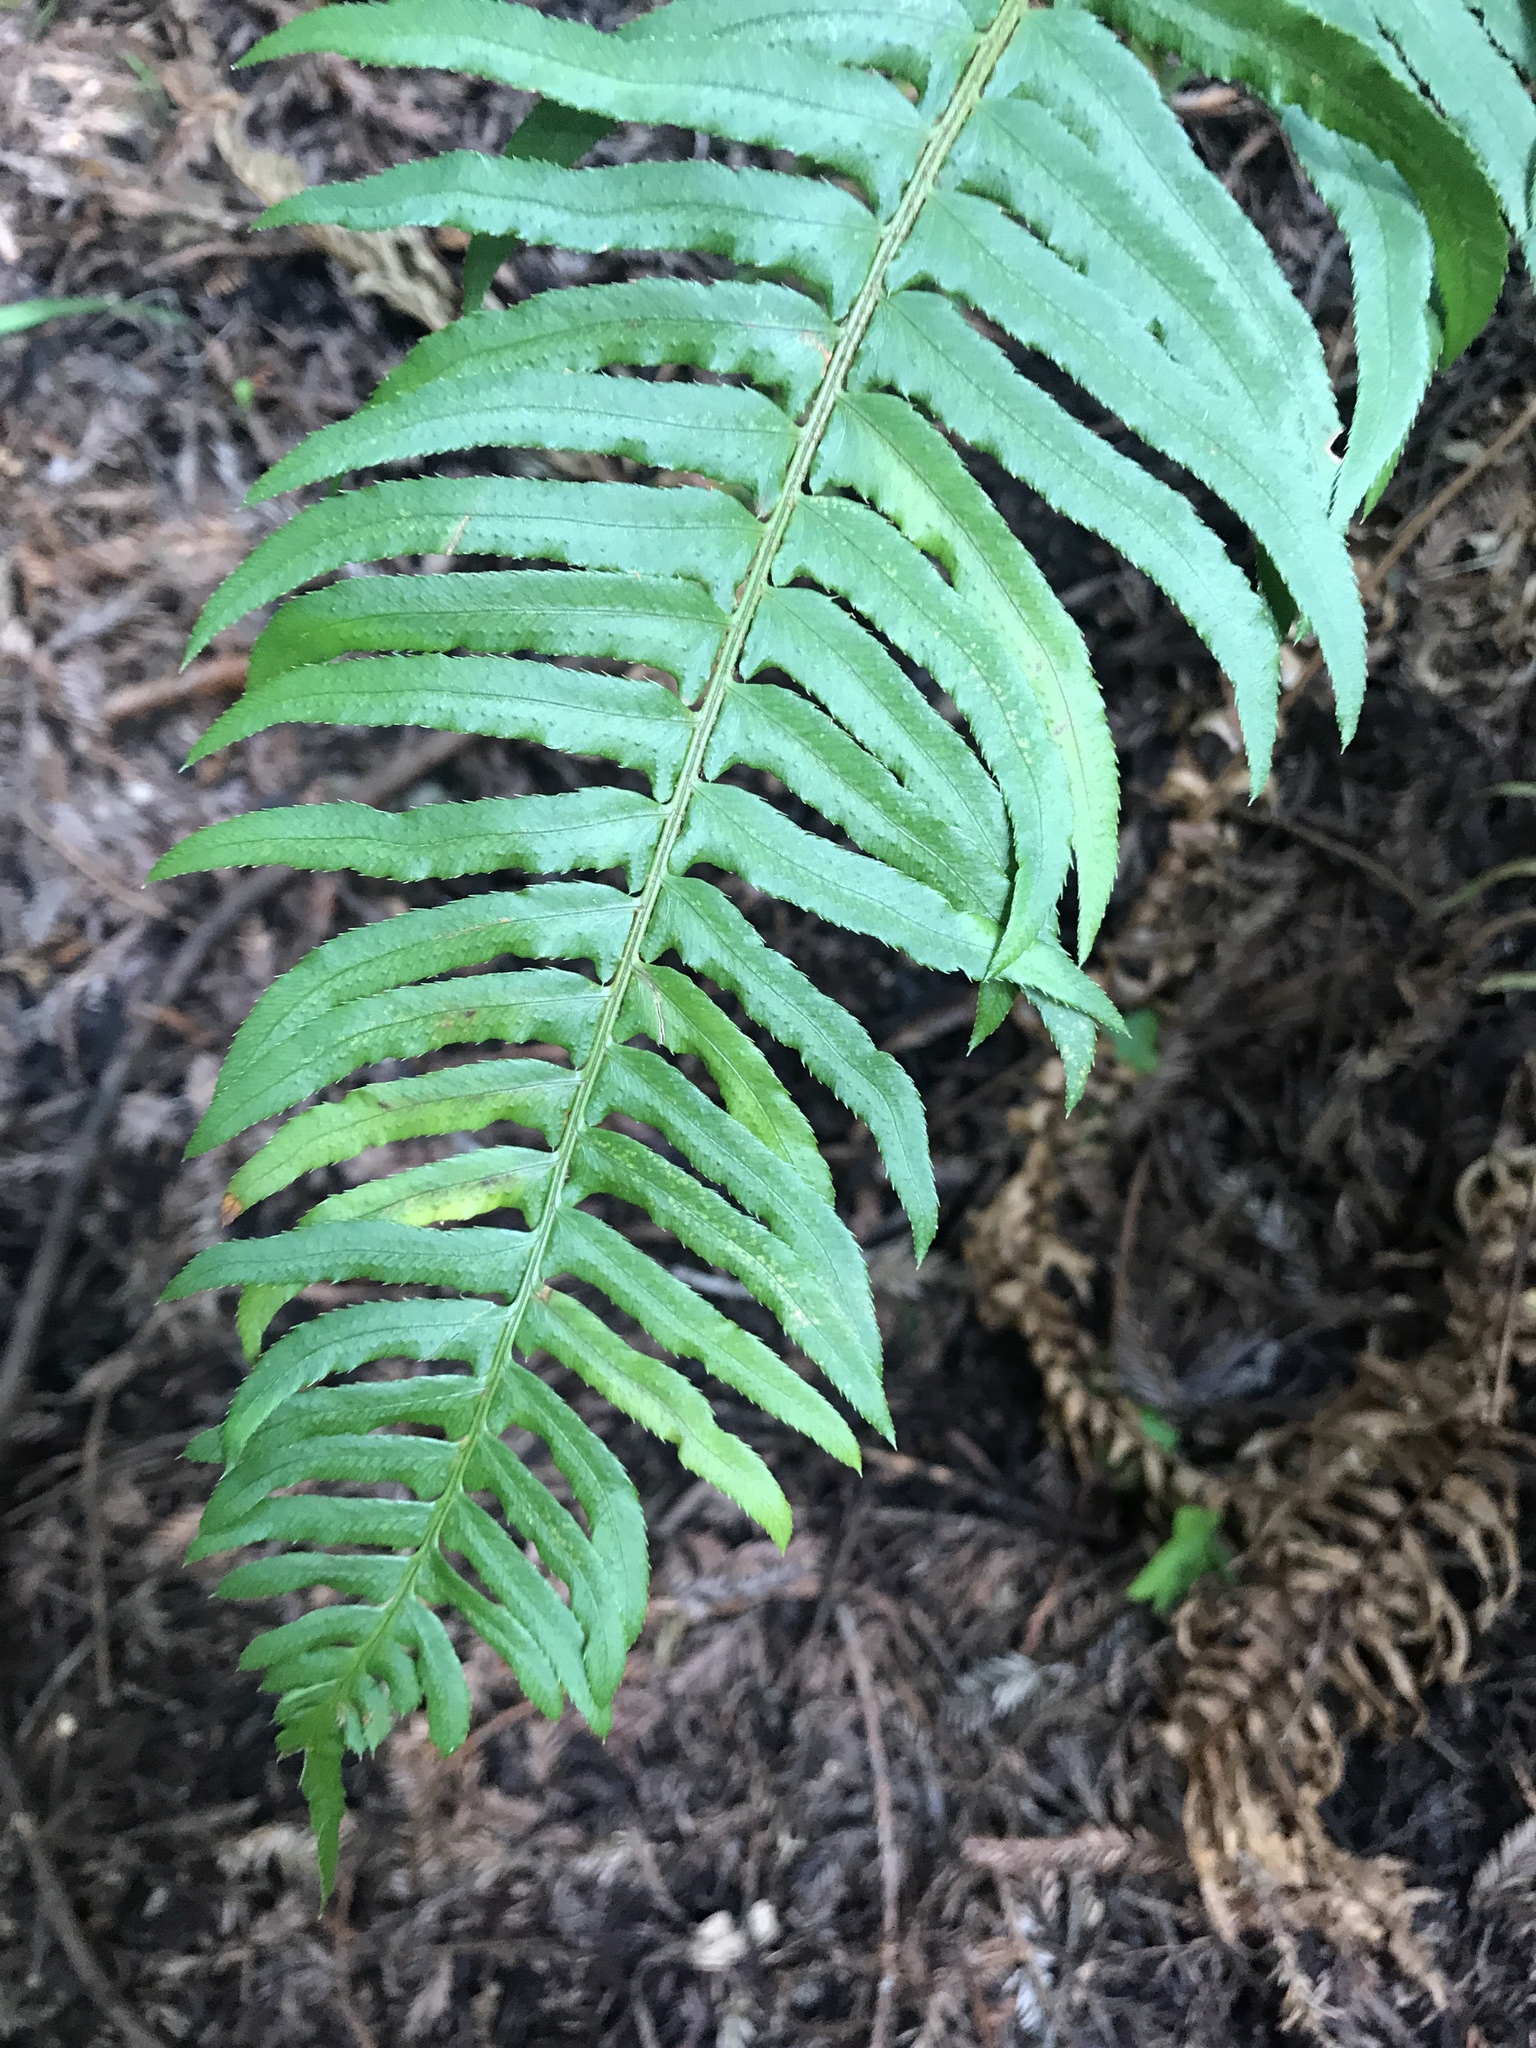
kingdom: Plantae
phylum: Tracheophyta
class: Polypodiopsida
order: Polypodiales
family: Dryopteridaceae
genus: Polystichum
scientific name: Polystichum munitum
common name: Western sword-fern
